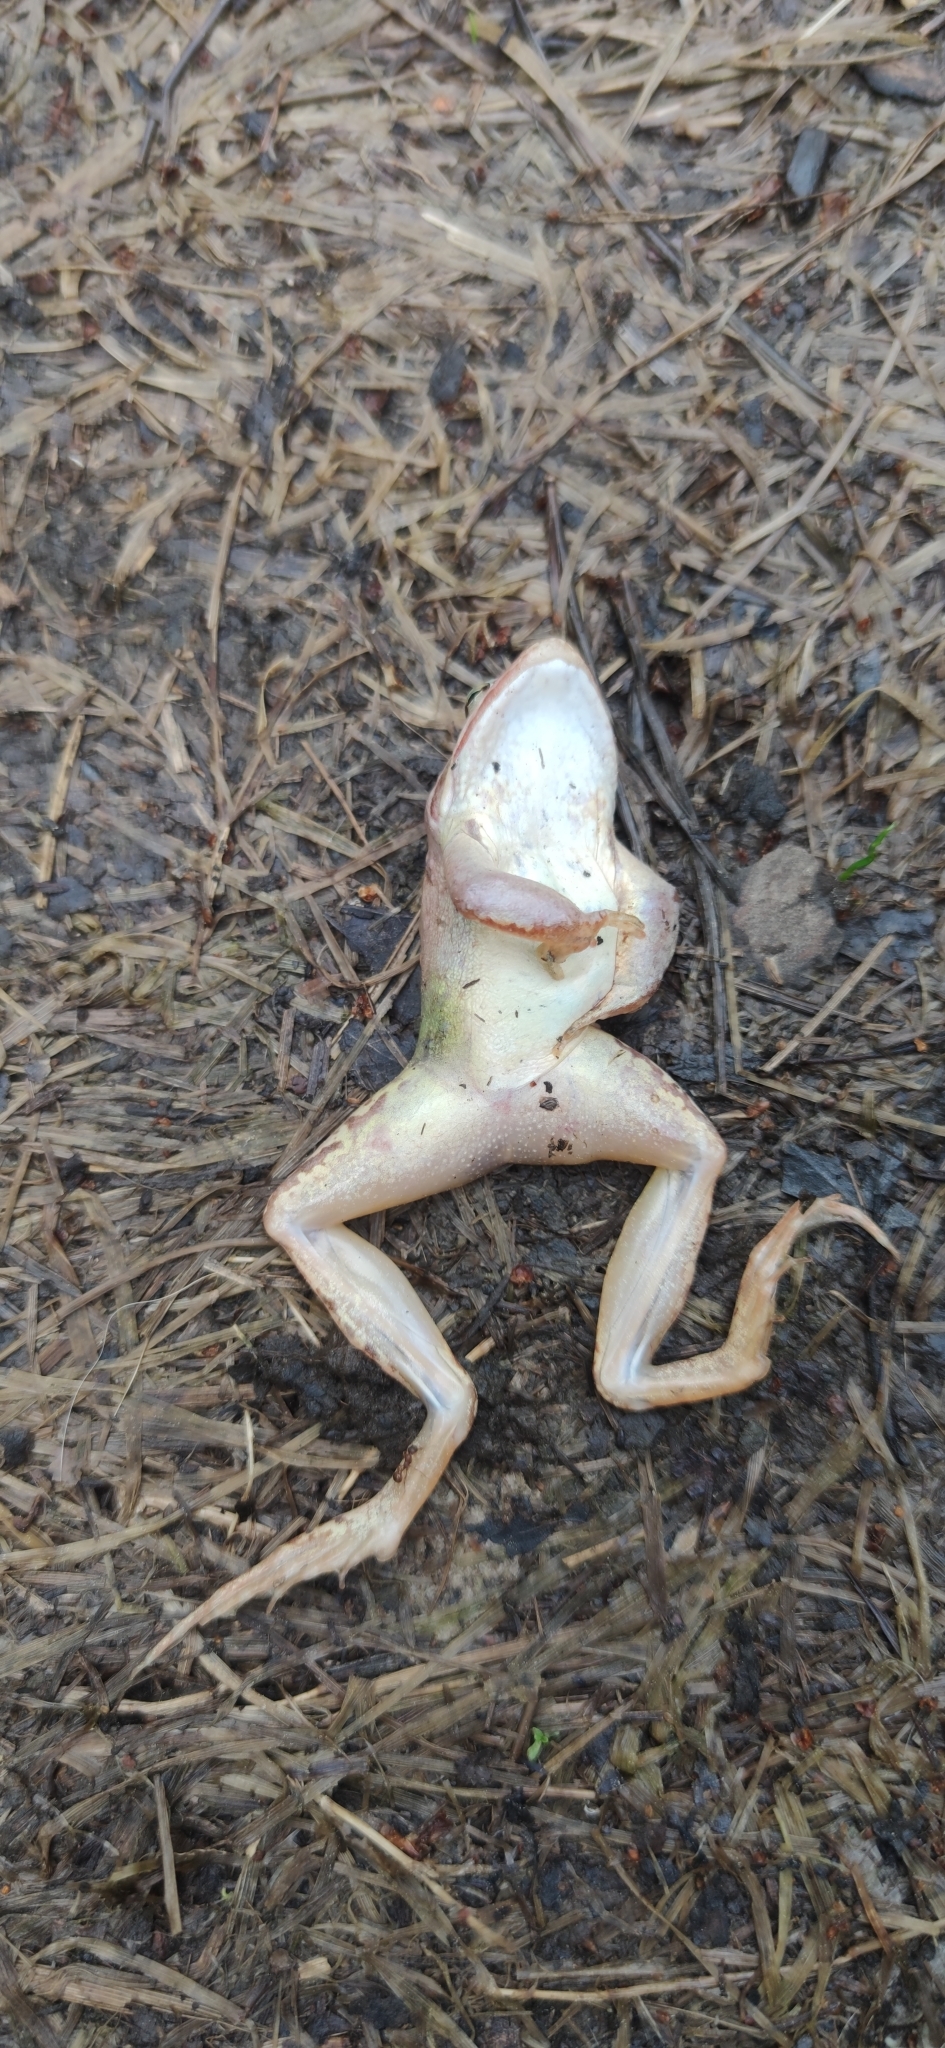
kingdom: Animalia
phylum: Chordata
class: Amphibia
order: Anura
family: Ranidae
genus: Rana
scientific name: Rana arvalis
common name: Moor frog
